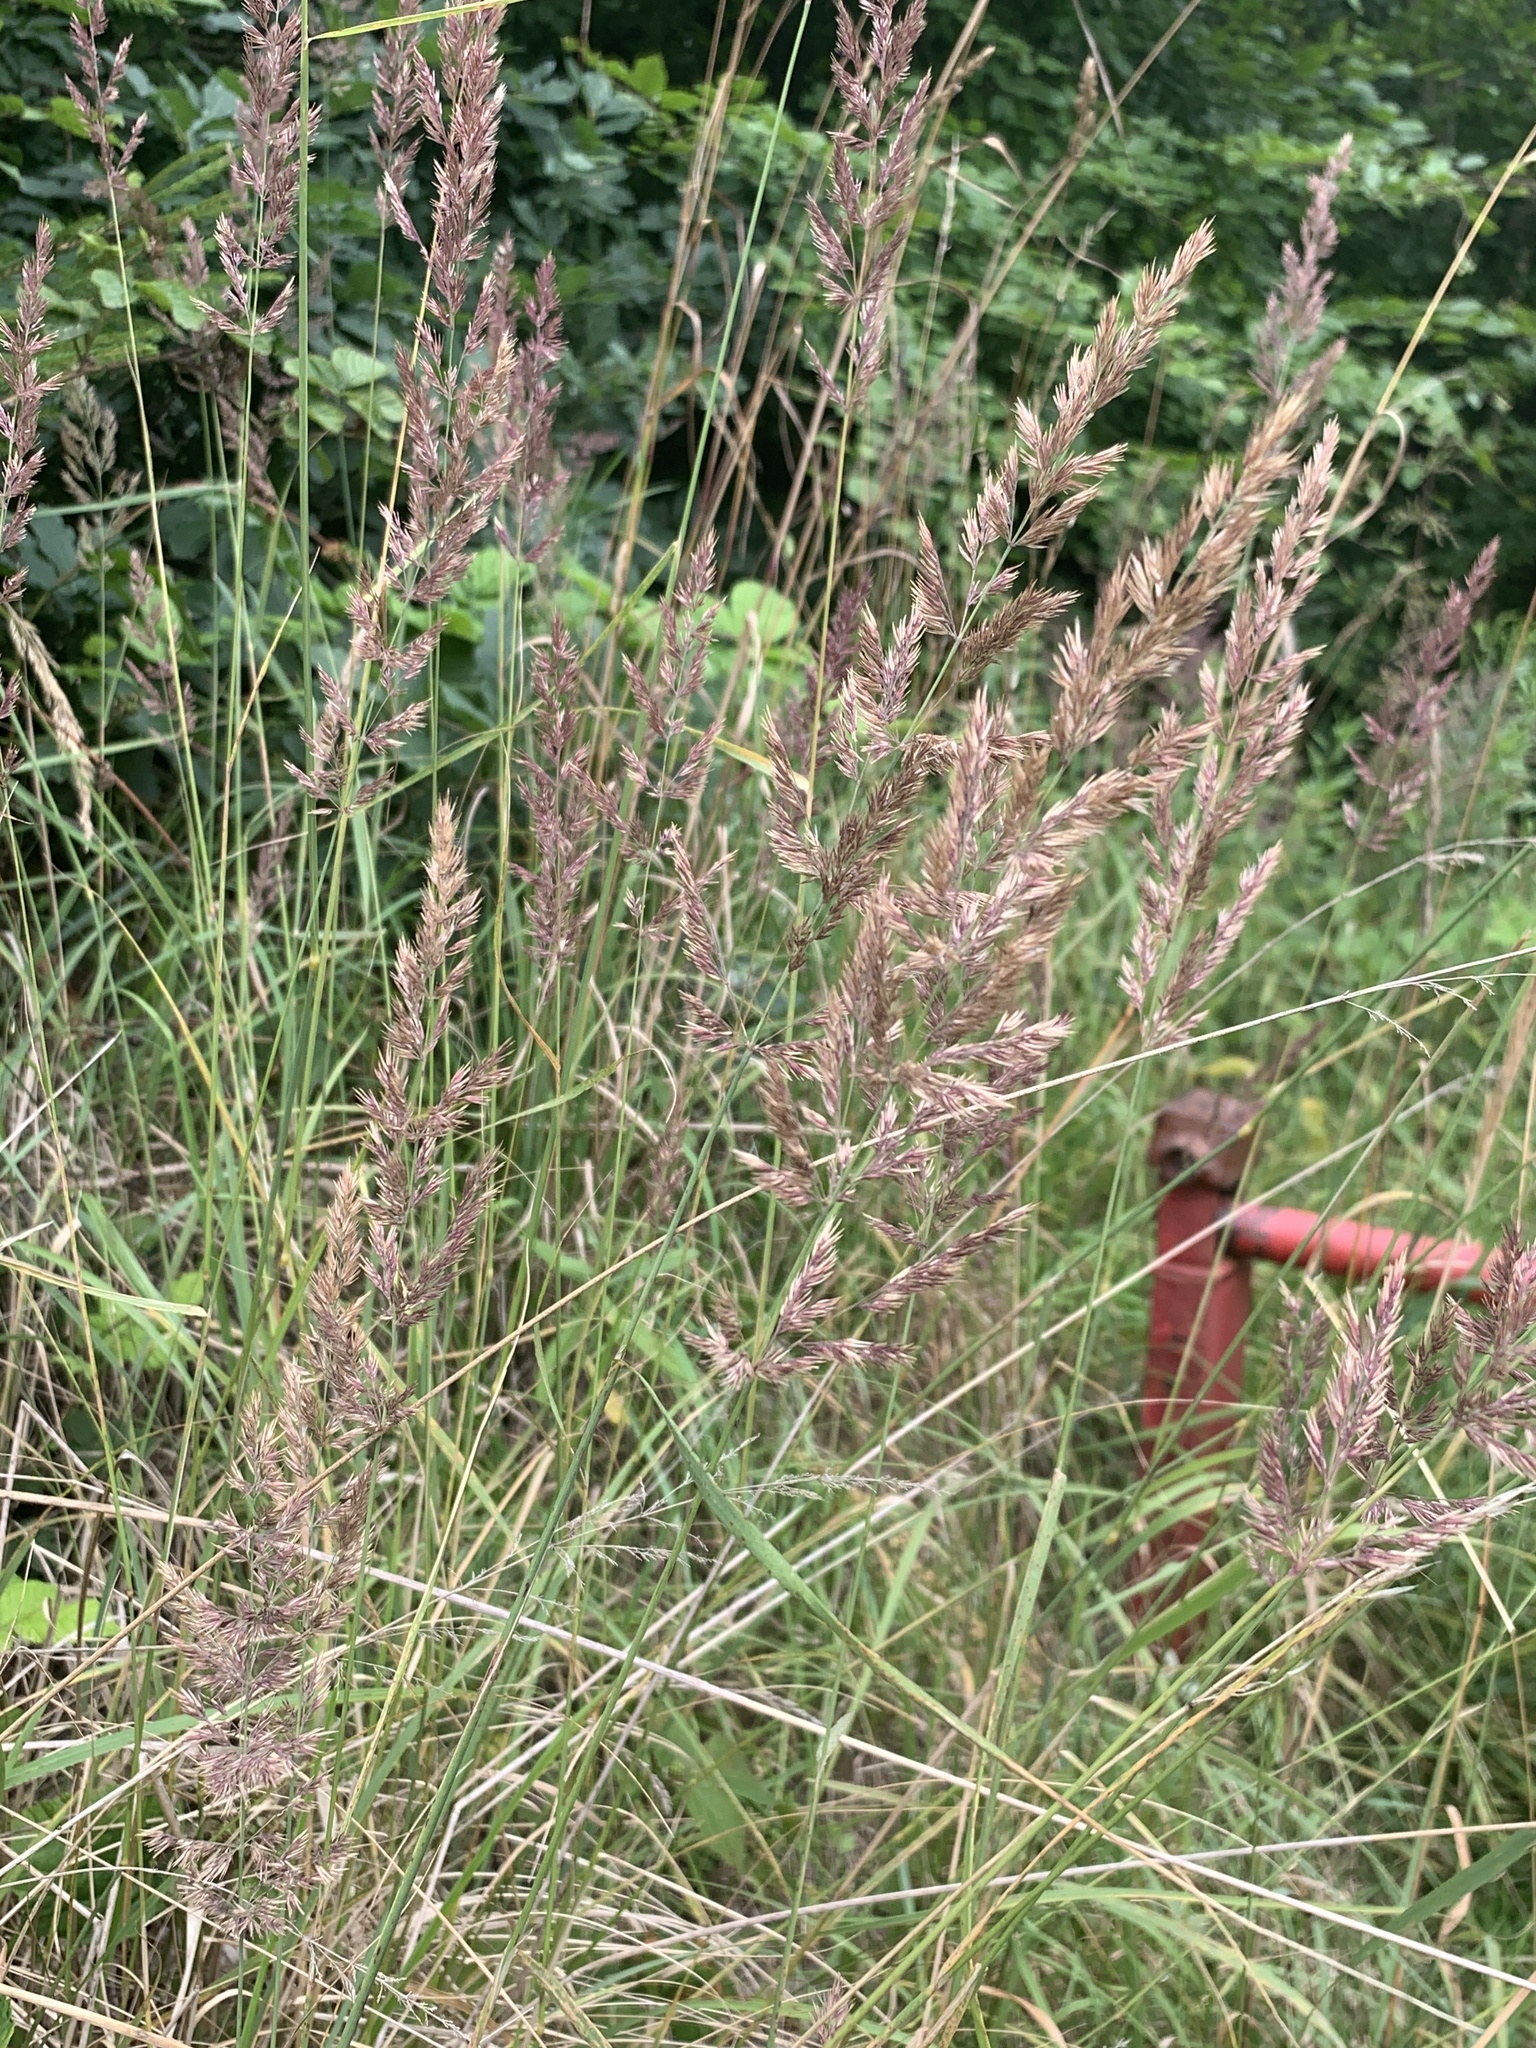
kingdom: Plantae
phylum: Tracheophyta
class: Liliopsida
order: Poales
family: Poaceae
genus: Calamagrostis
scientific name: Calamagrostis epigejos
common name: Wood small-reed
